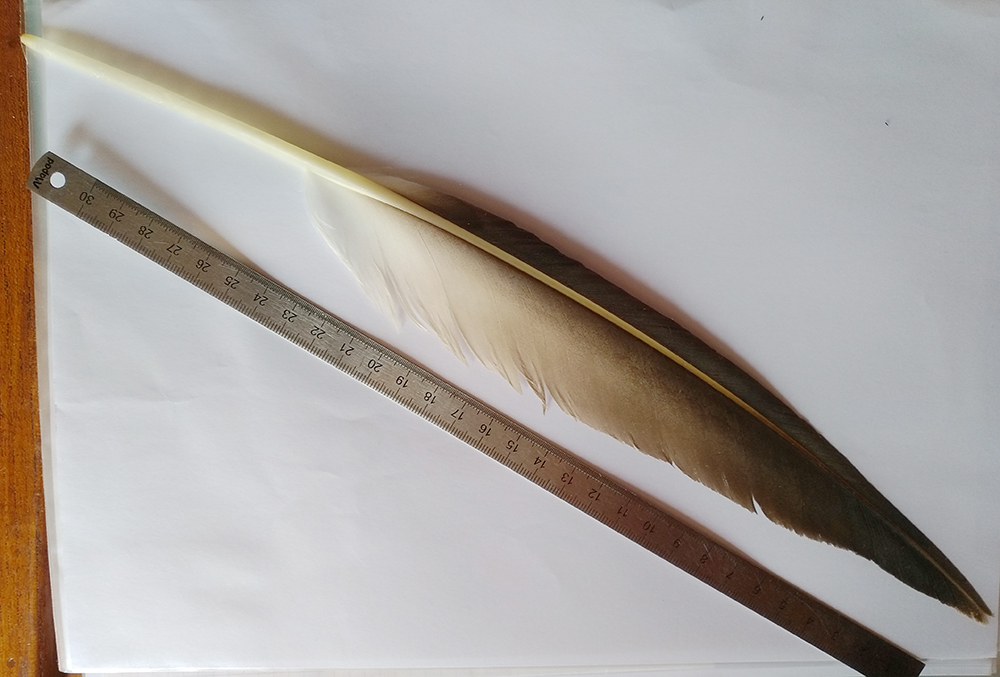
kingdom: Animalia
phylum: Chordata
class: Aves
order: Suliformes
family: Sulidae
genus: Morus
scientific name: Morus bassanus
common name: Northern gannet
